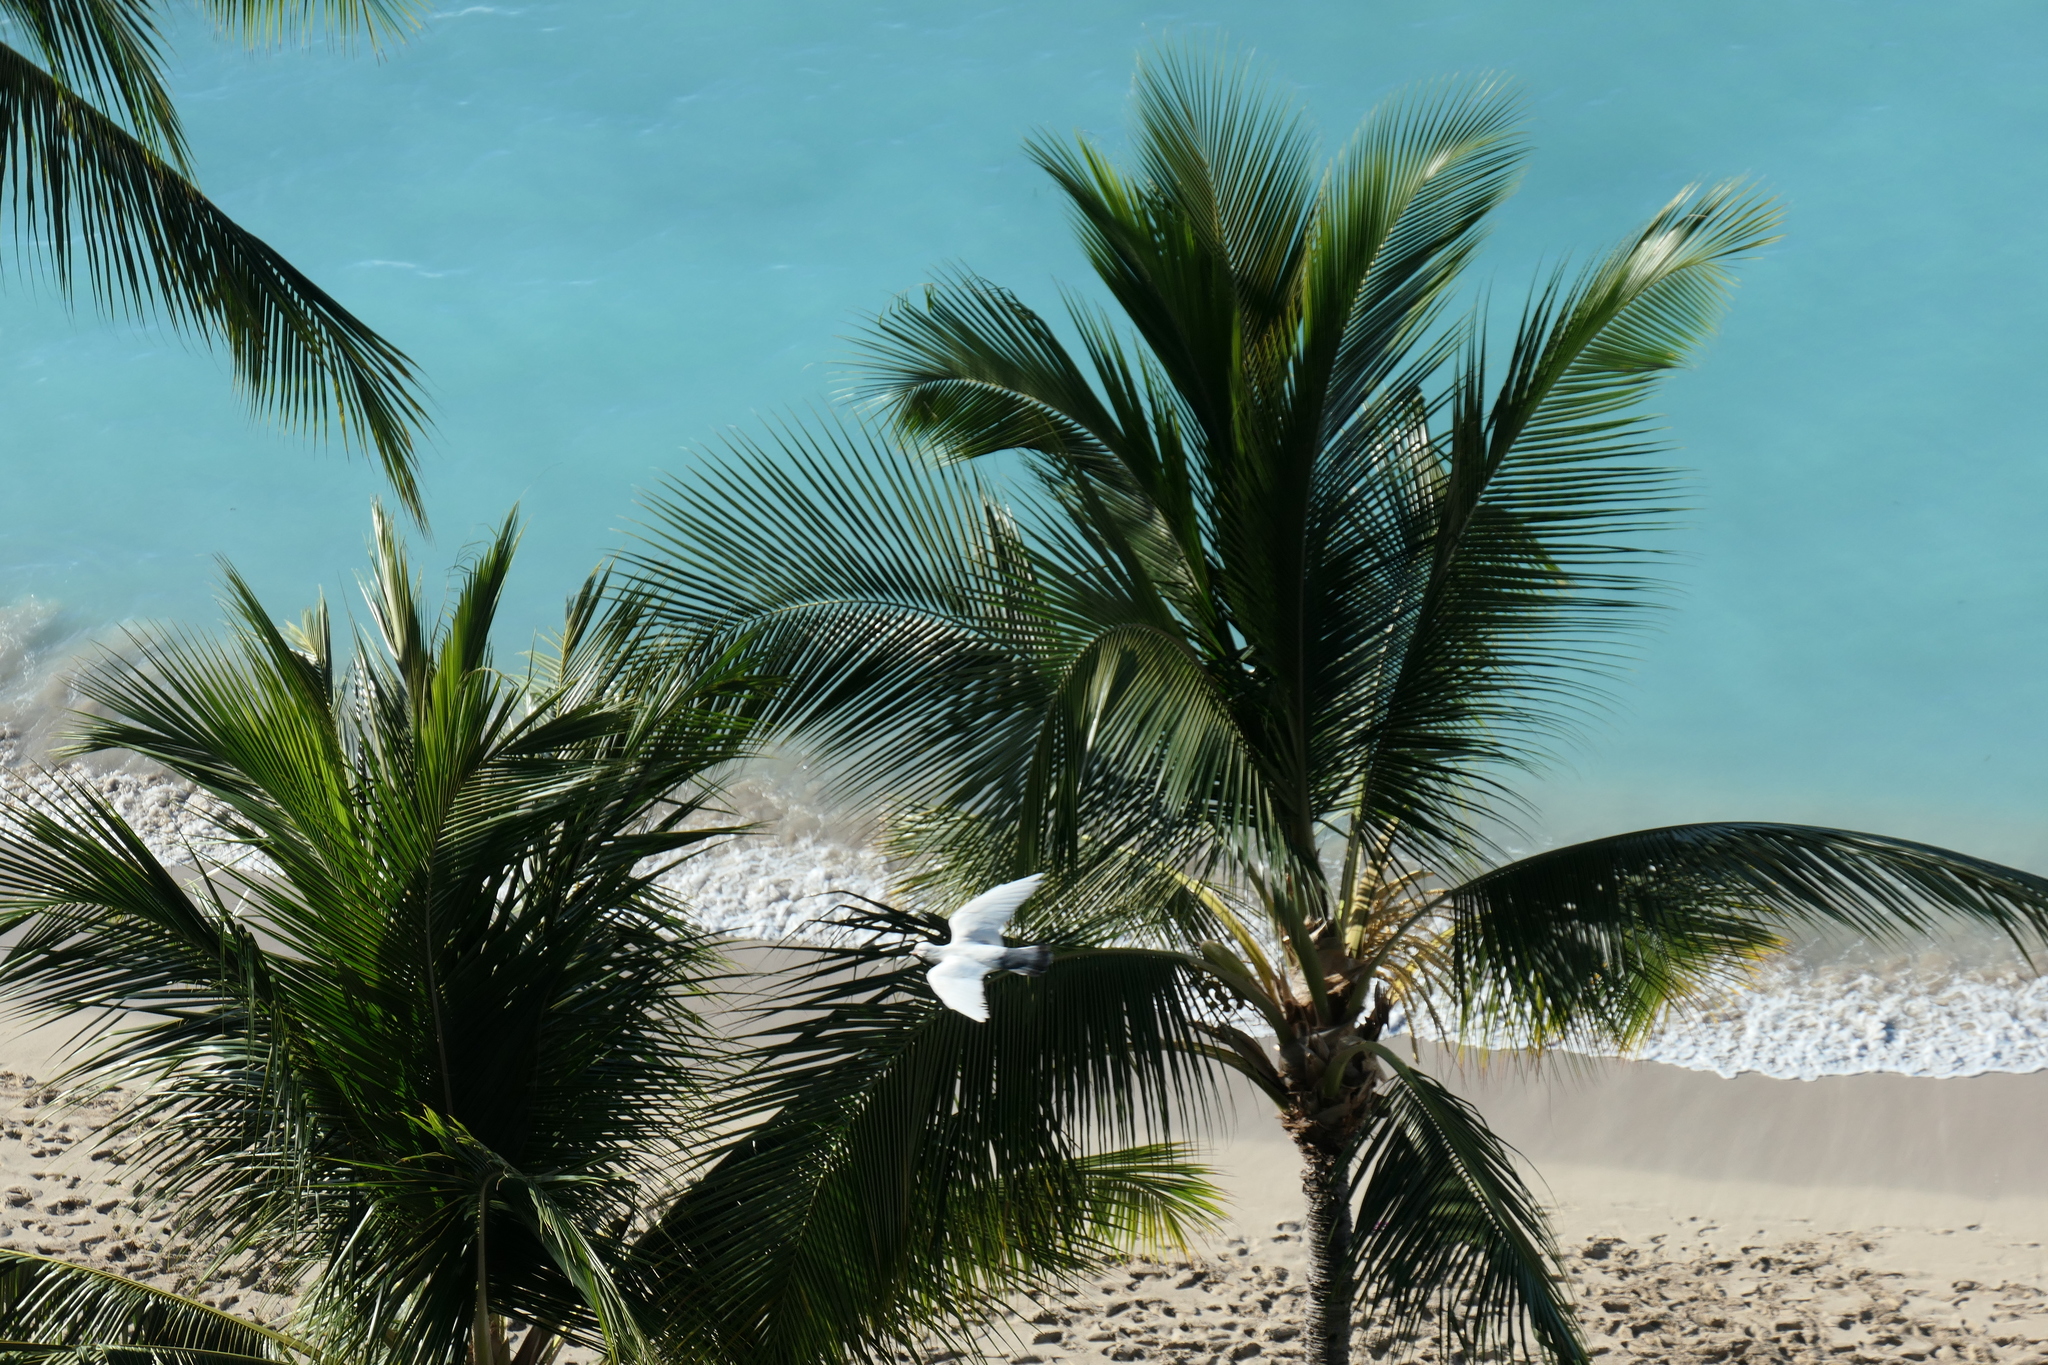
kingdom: Animalia
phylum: Chordata
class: Aves
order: Columbiformes
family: Columbidae
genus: Columba
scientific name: Columba livia
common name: Rock pigeon
